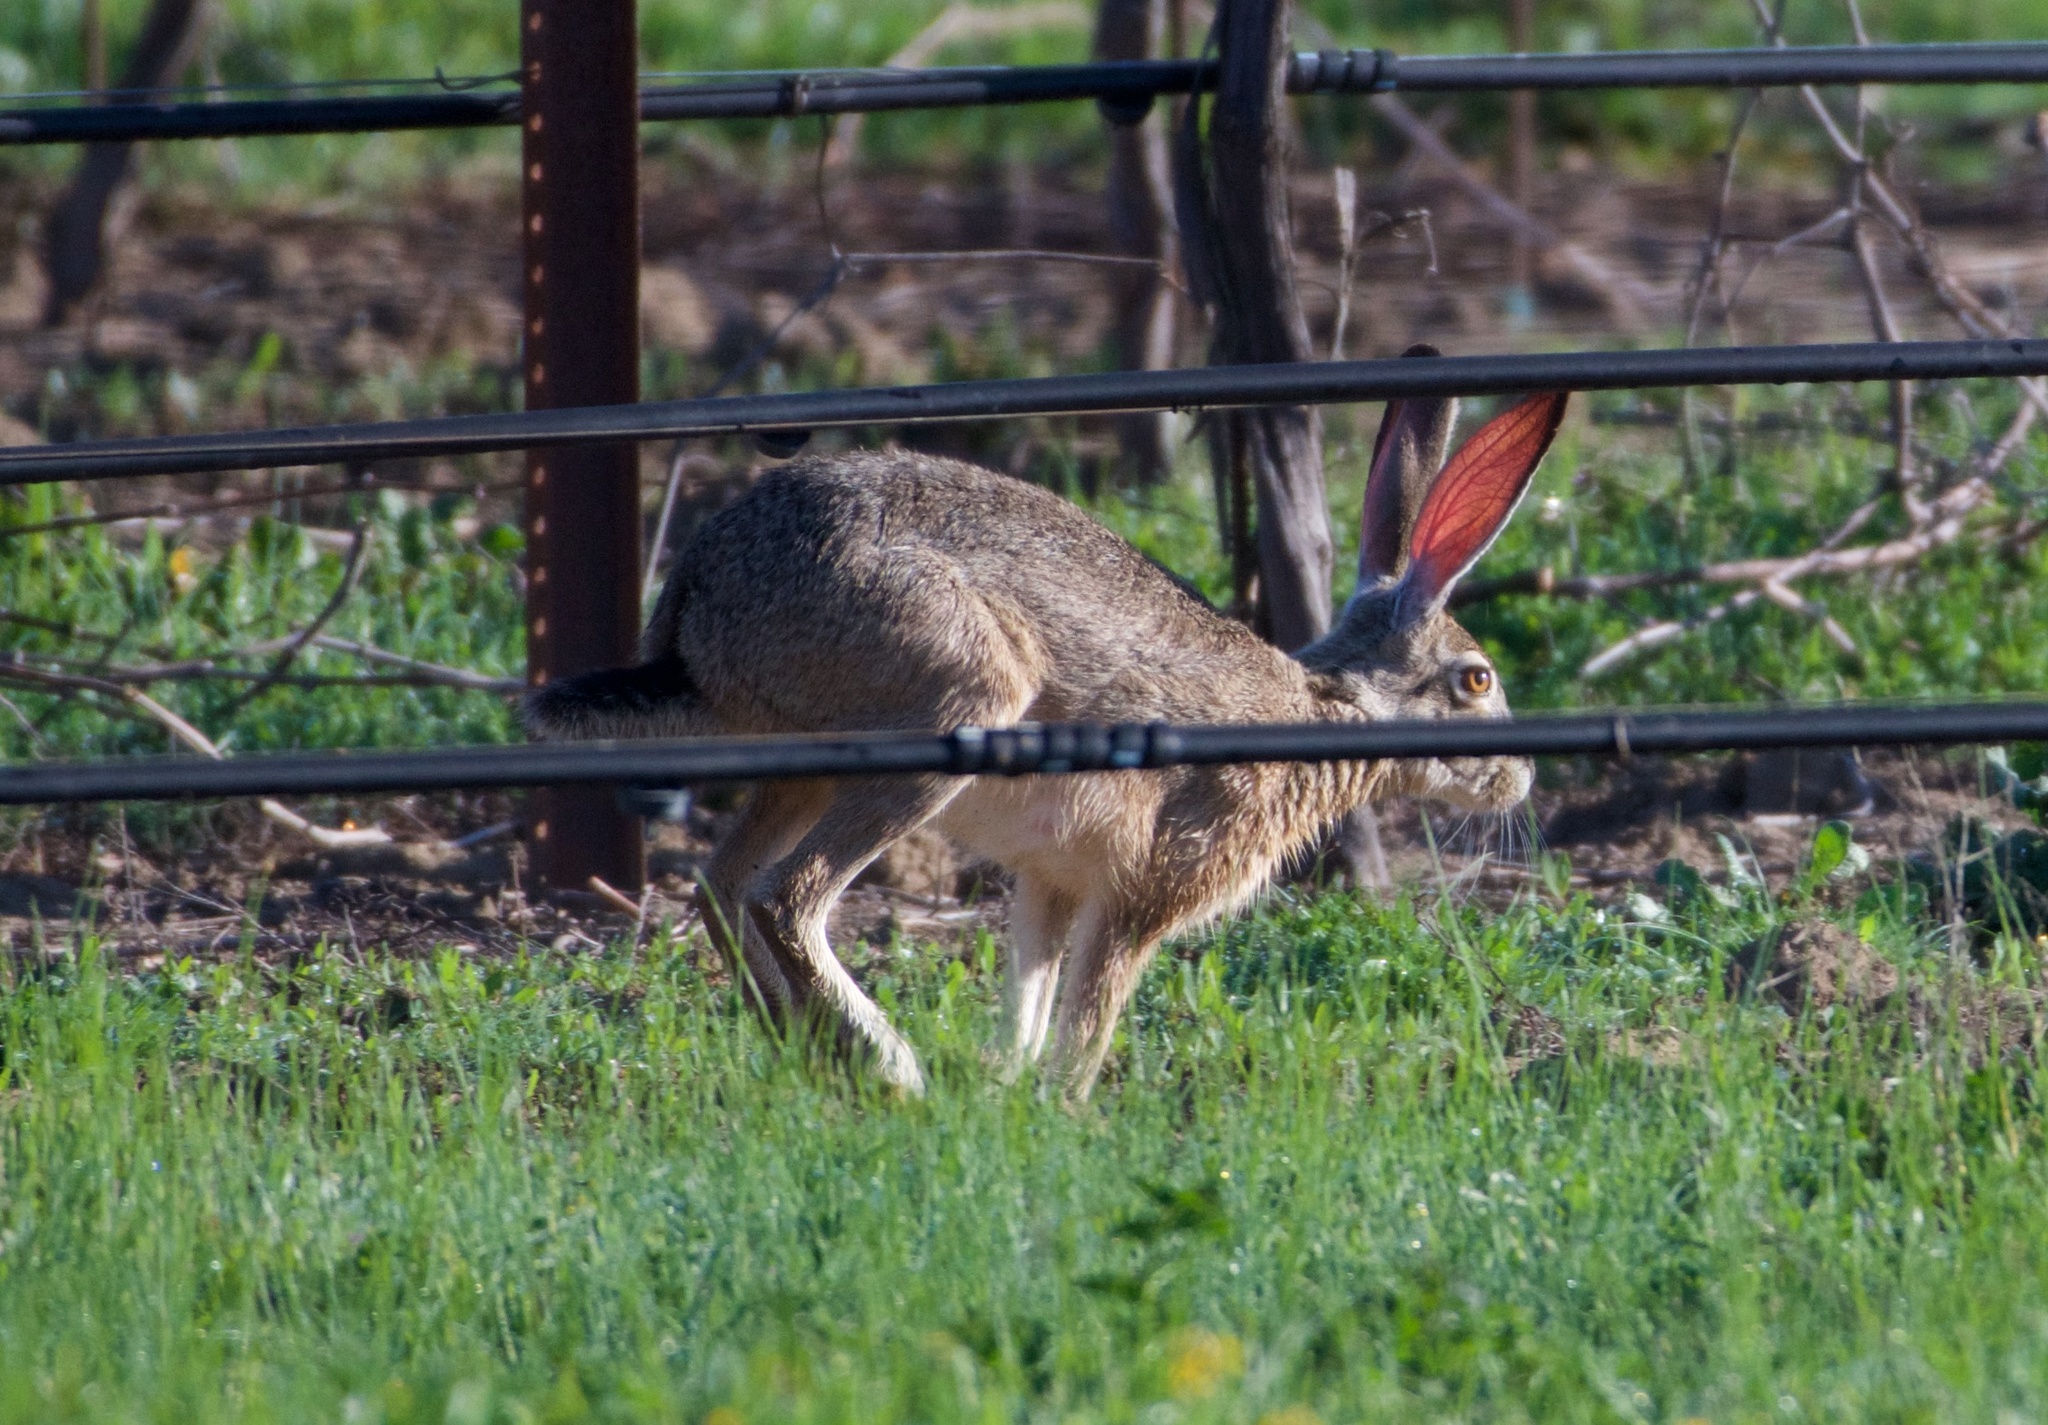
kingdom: Animalia
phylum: Chordata
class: Mammalia
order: Lagomorpha
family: Leporidae
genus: Lepus
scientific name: Lepus californicus
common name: Black-tailed jackrabbit
